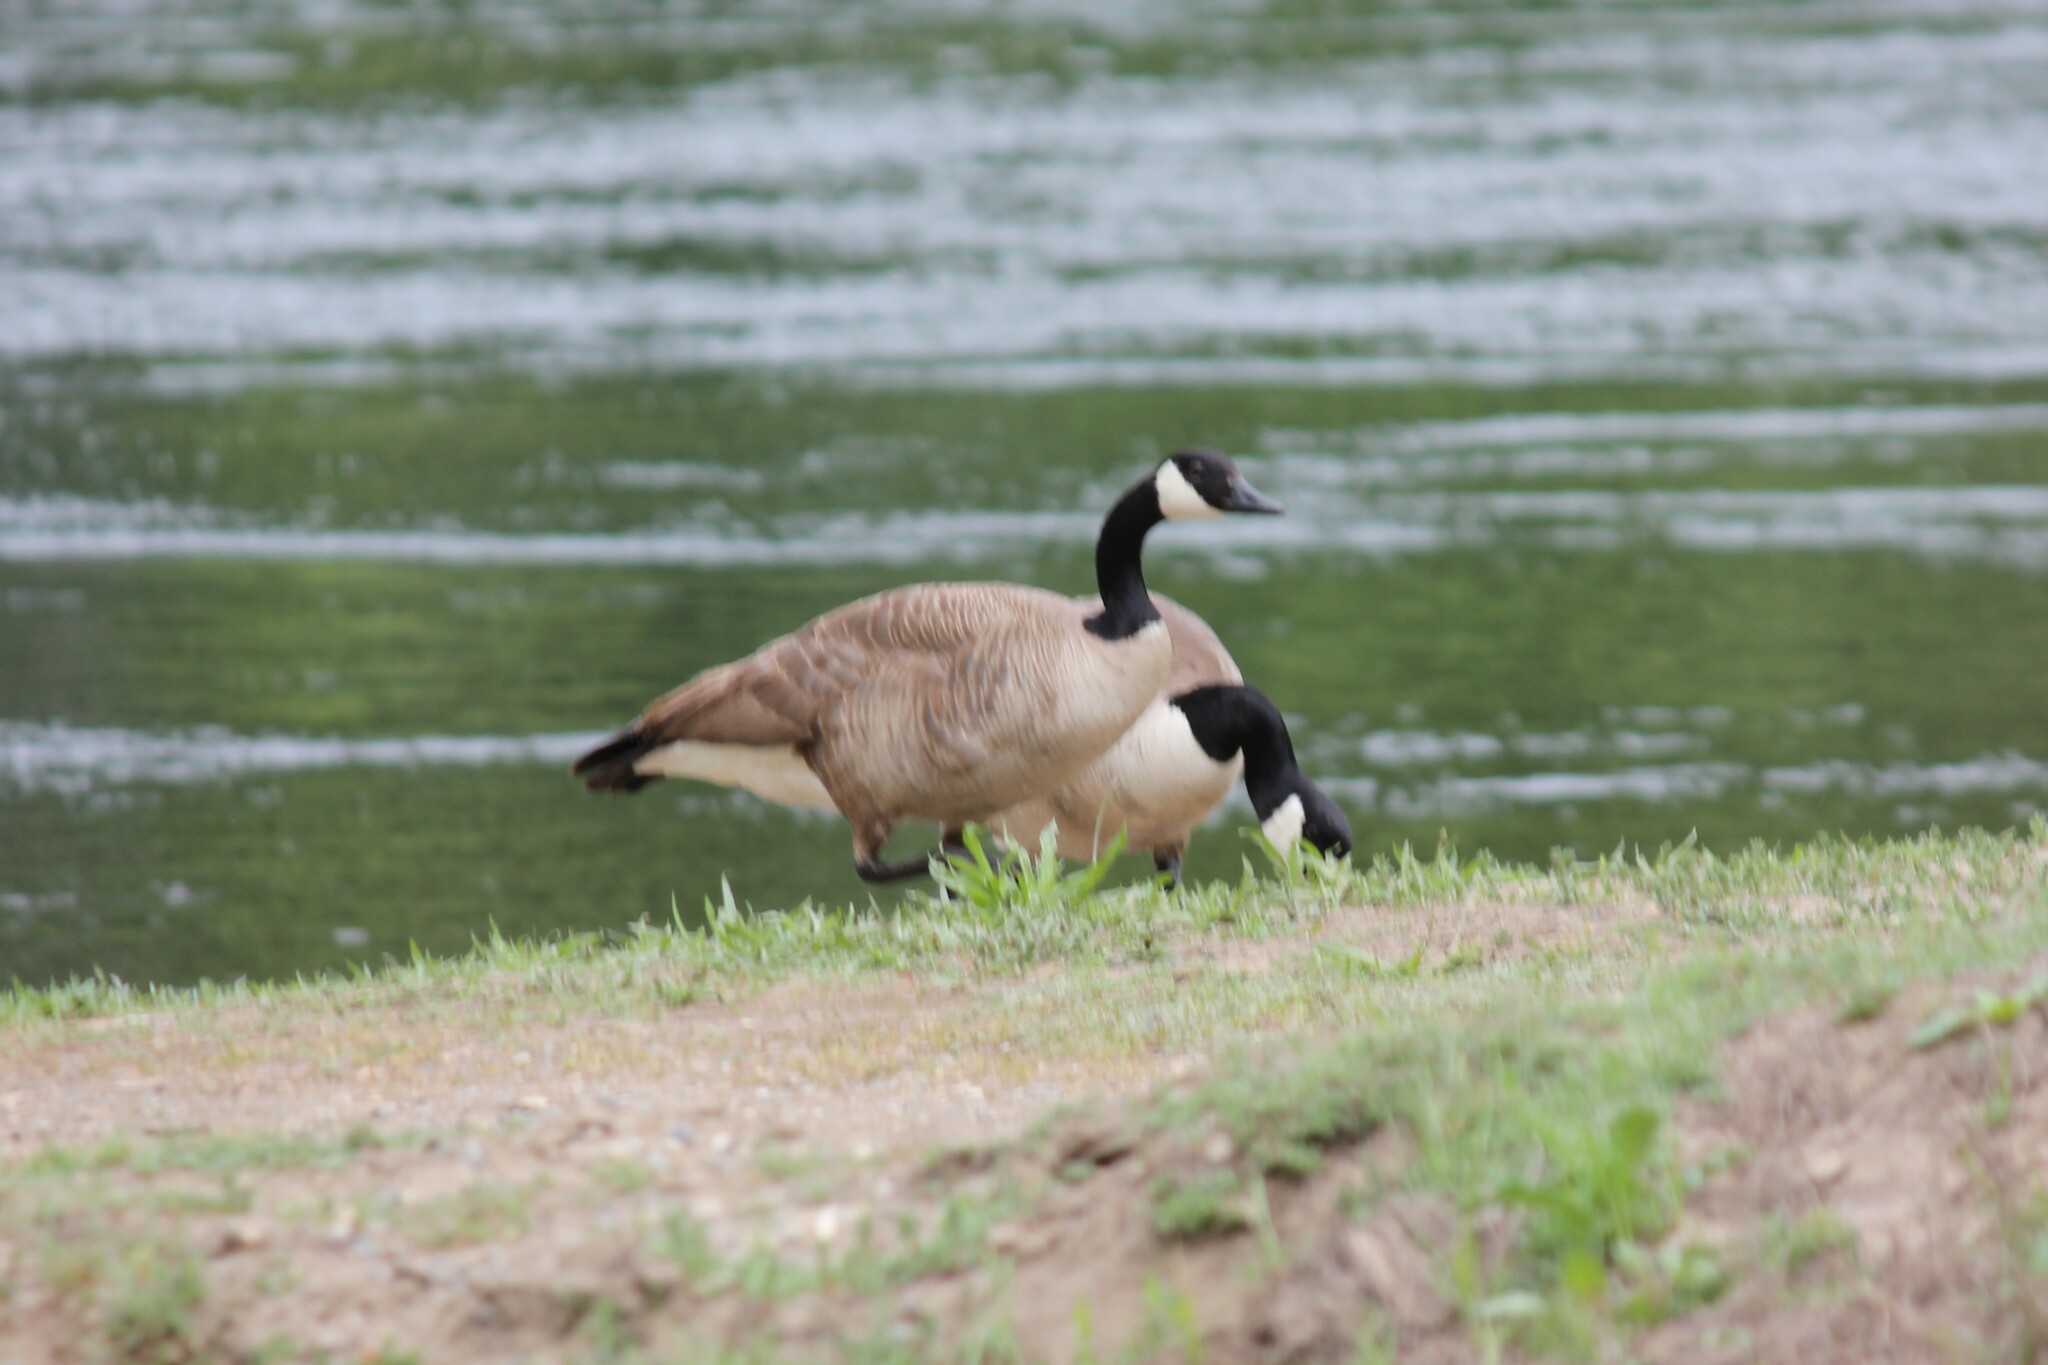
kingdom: Animalia
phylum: Chordata
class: Aves
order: Anseriformes
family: Anatidae
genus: Branta
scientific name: Branta canadensis
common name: Canada goose
